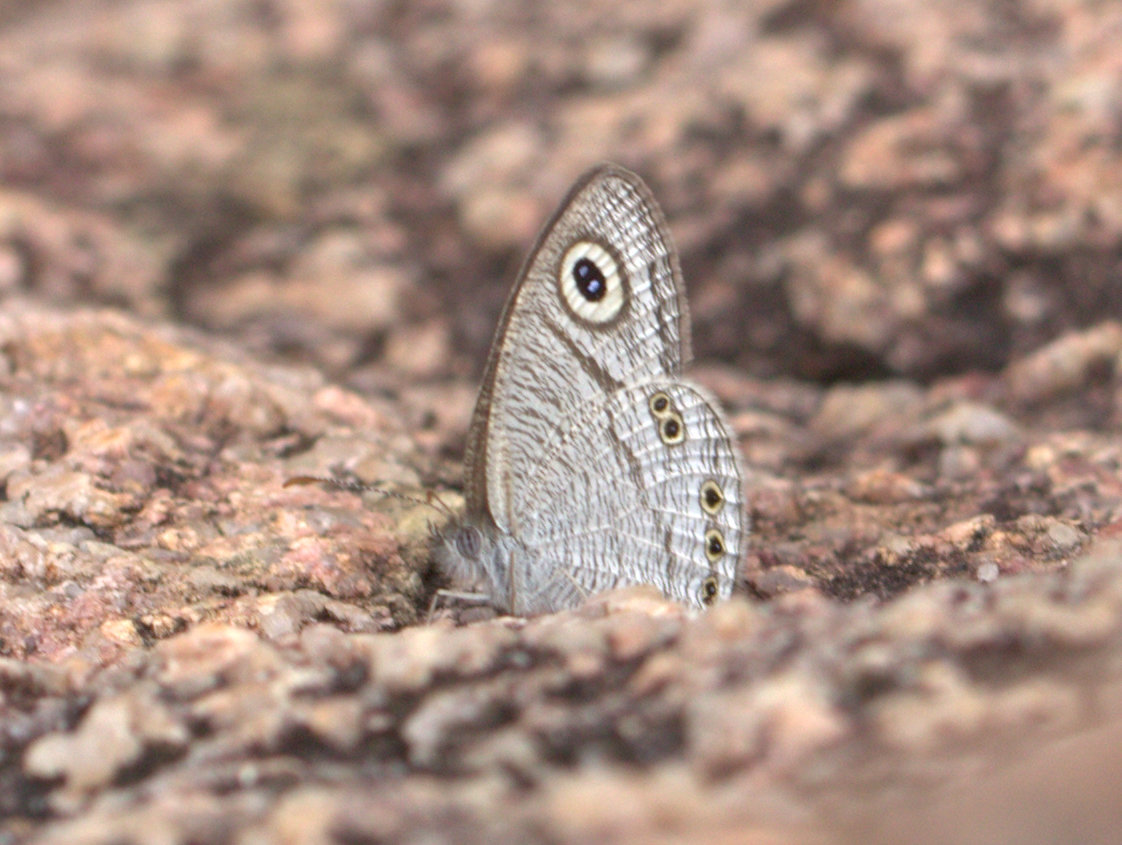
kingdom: Animalia
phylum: Arthropoda
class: Insecta
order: Lepidoptera
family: Nymphalidae
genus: Ypthima
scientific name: Ypthima avanta
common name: Jewel five-ring
